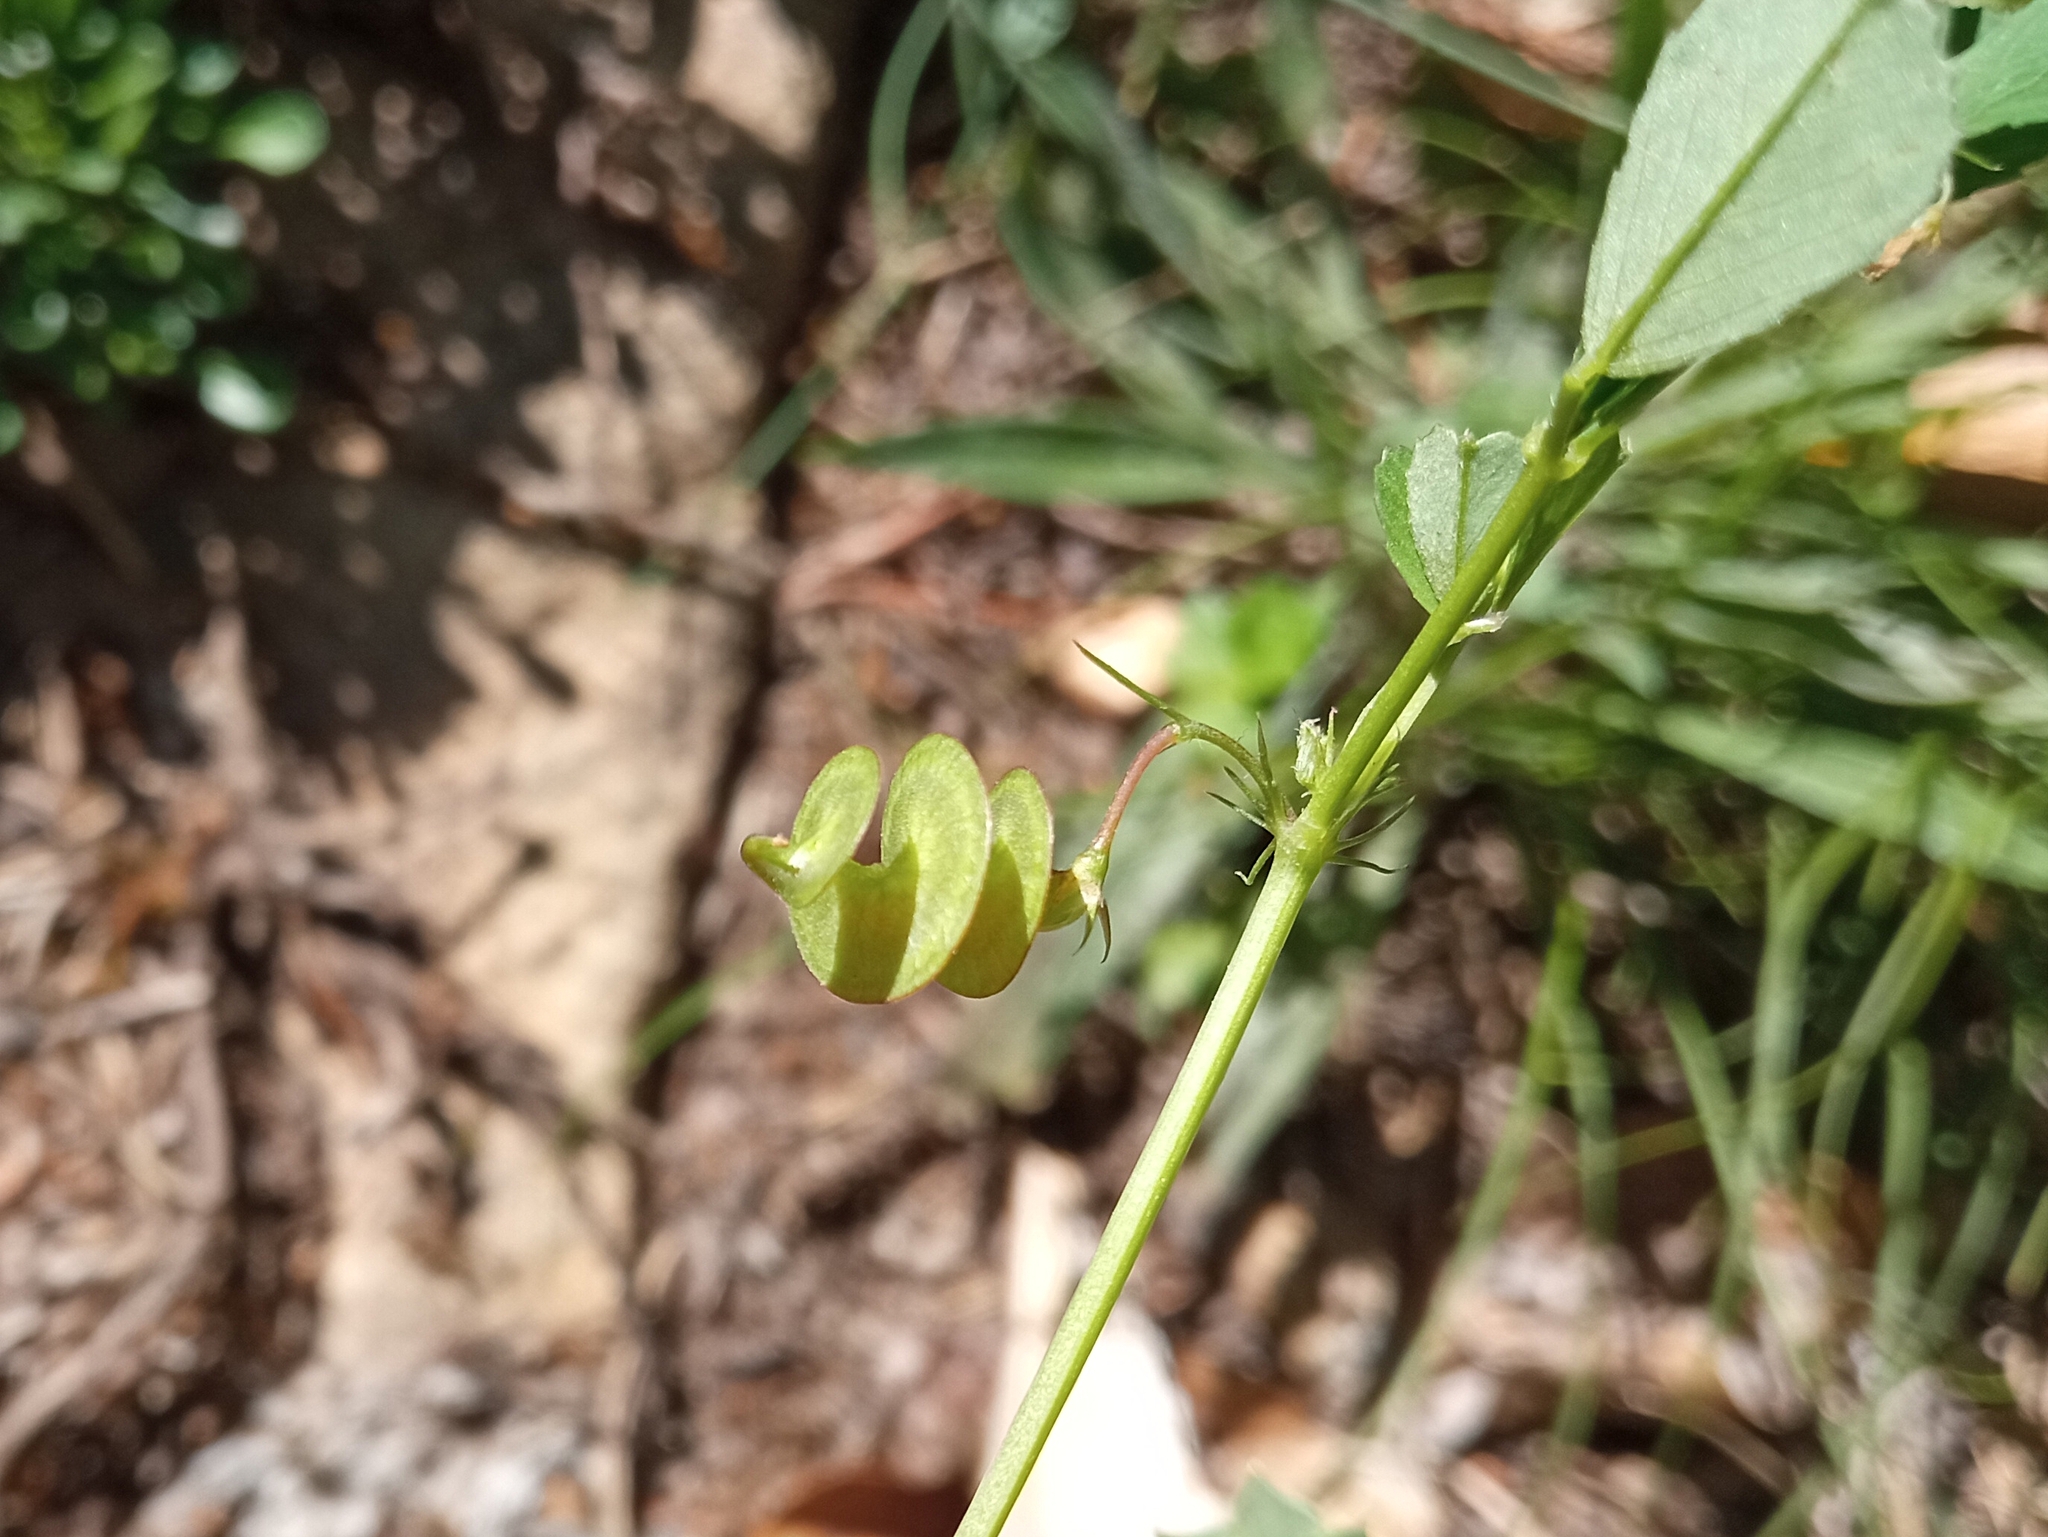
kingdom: Plantae
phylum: Tracheophyta
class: Magnoliopsida
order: Fabales
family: Fabaceae
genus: Medicago
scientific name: Medicago orbicularis
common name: Button medick
